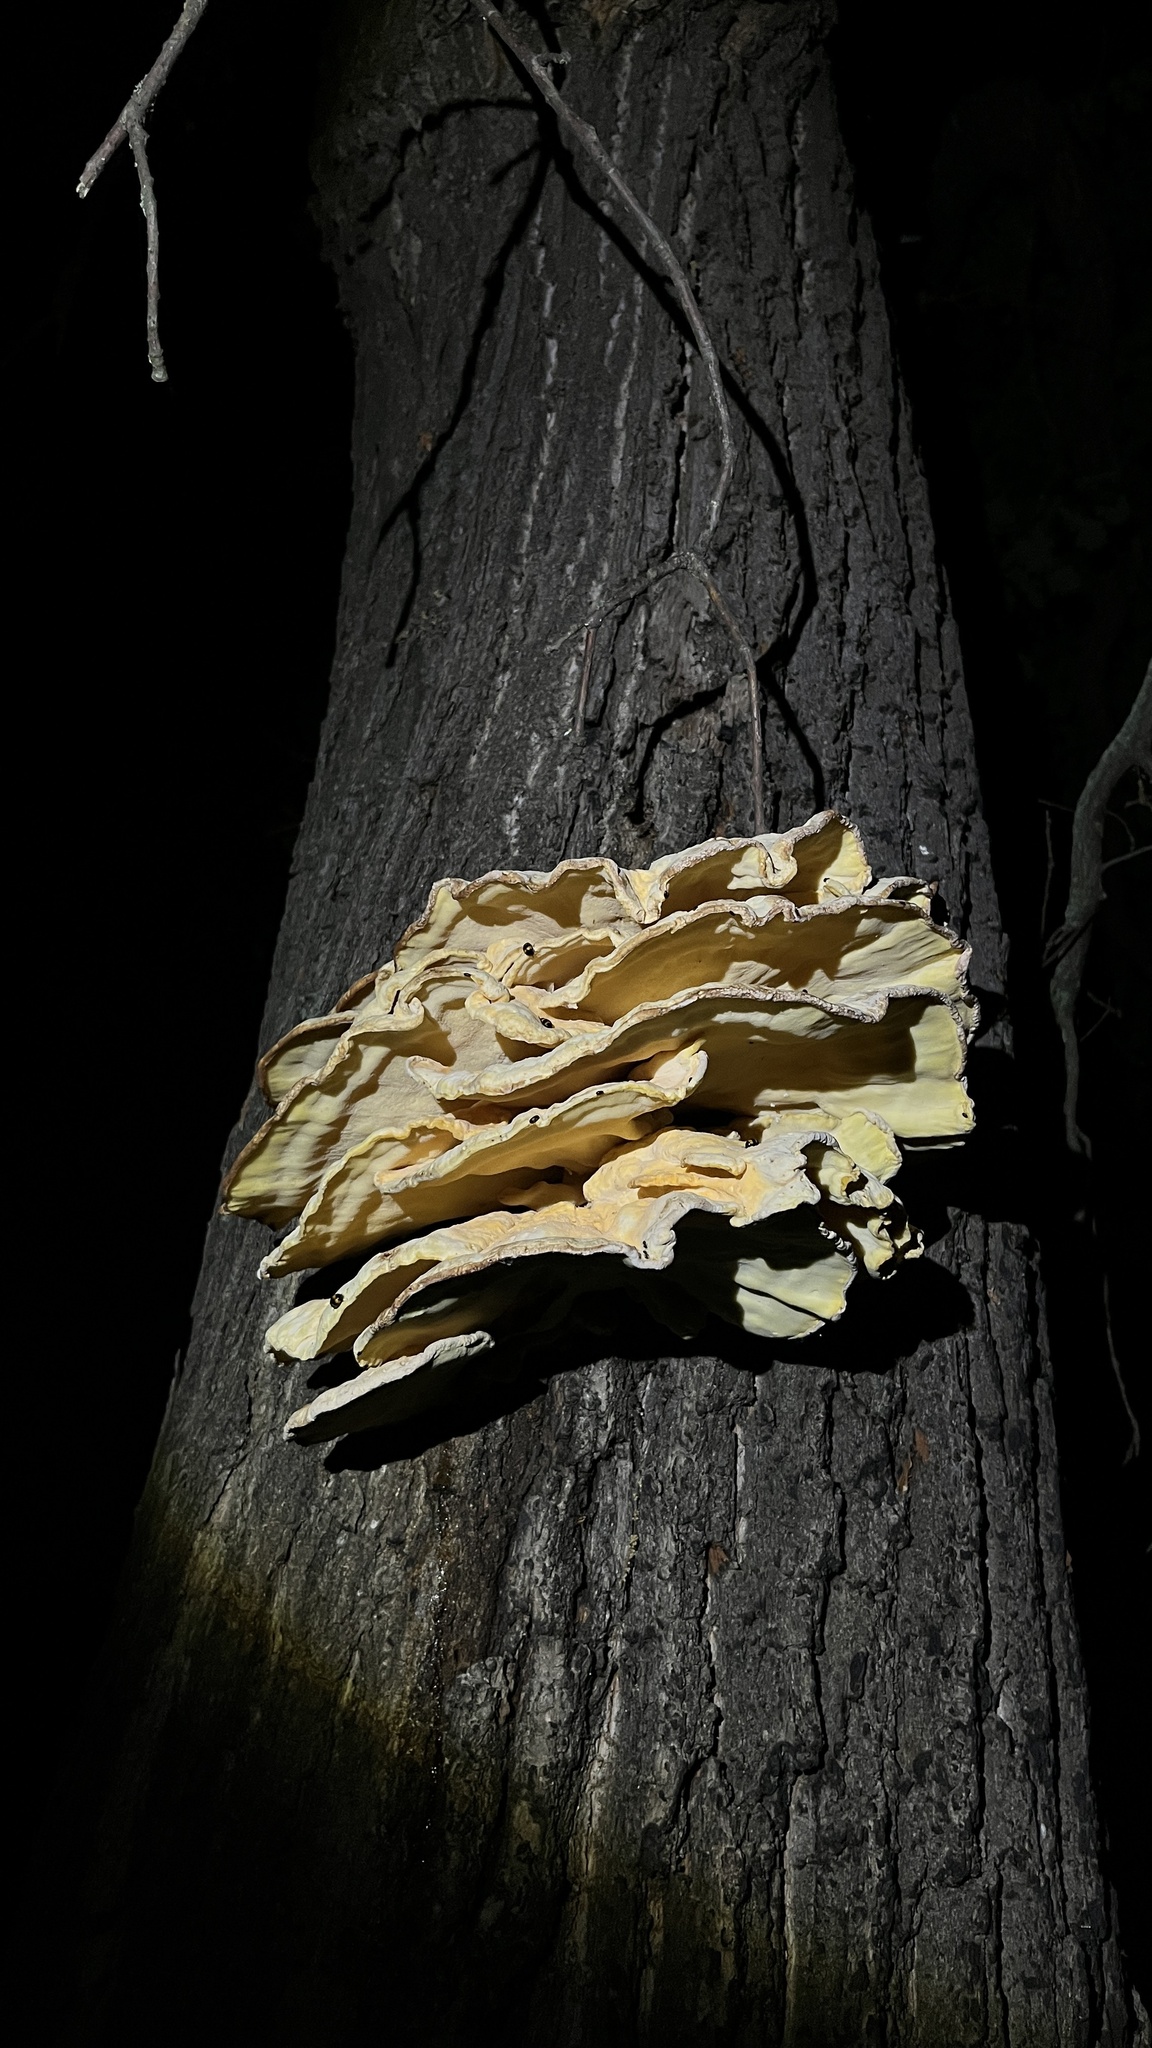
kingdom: Fungi
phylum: Basidiomycota
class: Agaricomycetes
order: Polyporales
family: Laetiporaceae
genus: Laetiporus
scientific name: Laetiporus sulphureus
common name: Chicken of the woods
